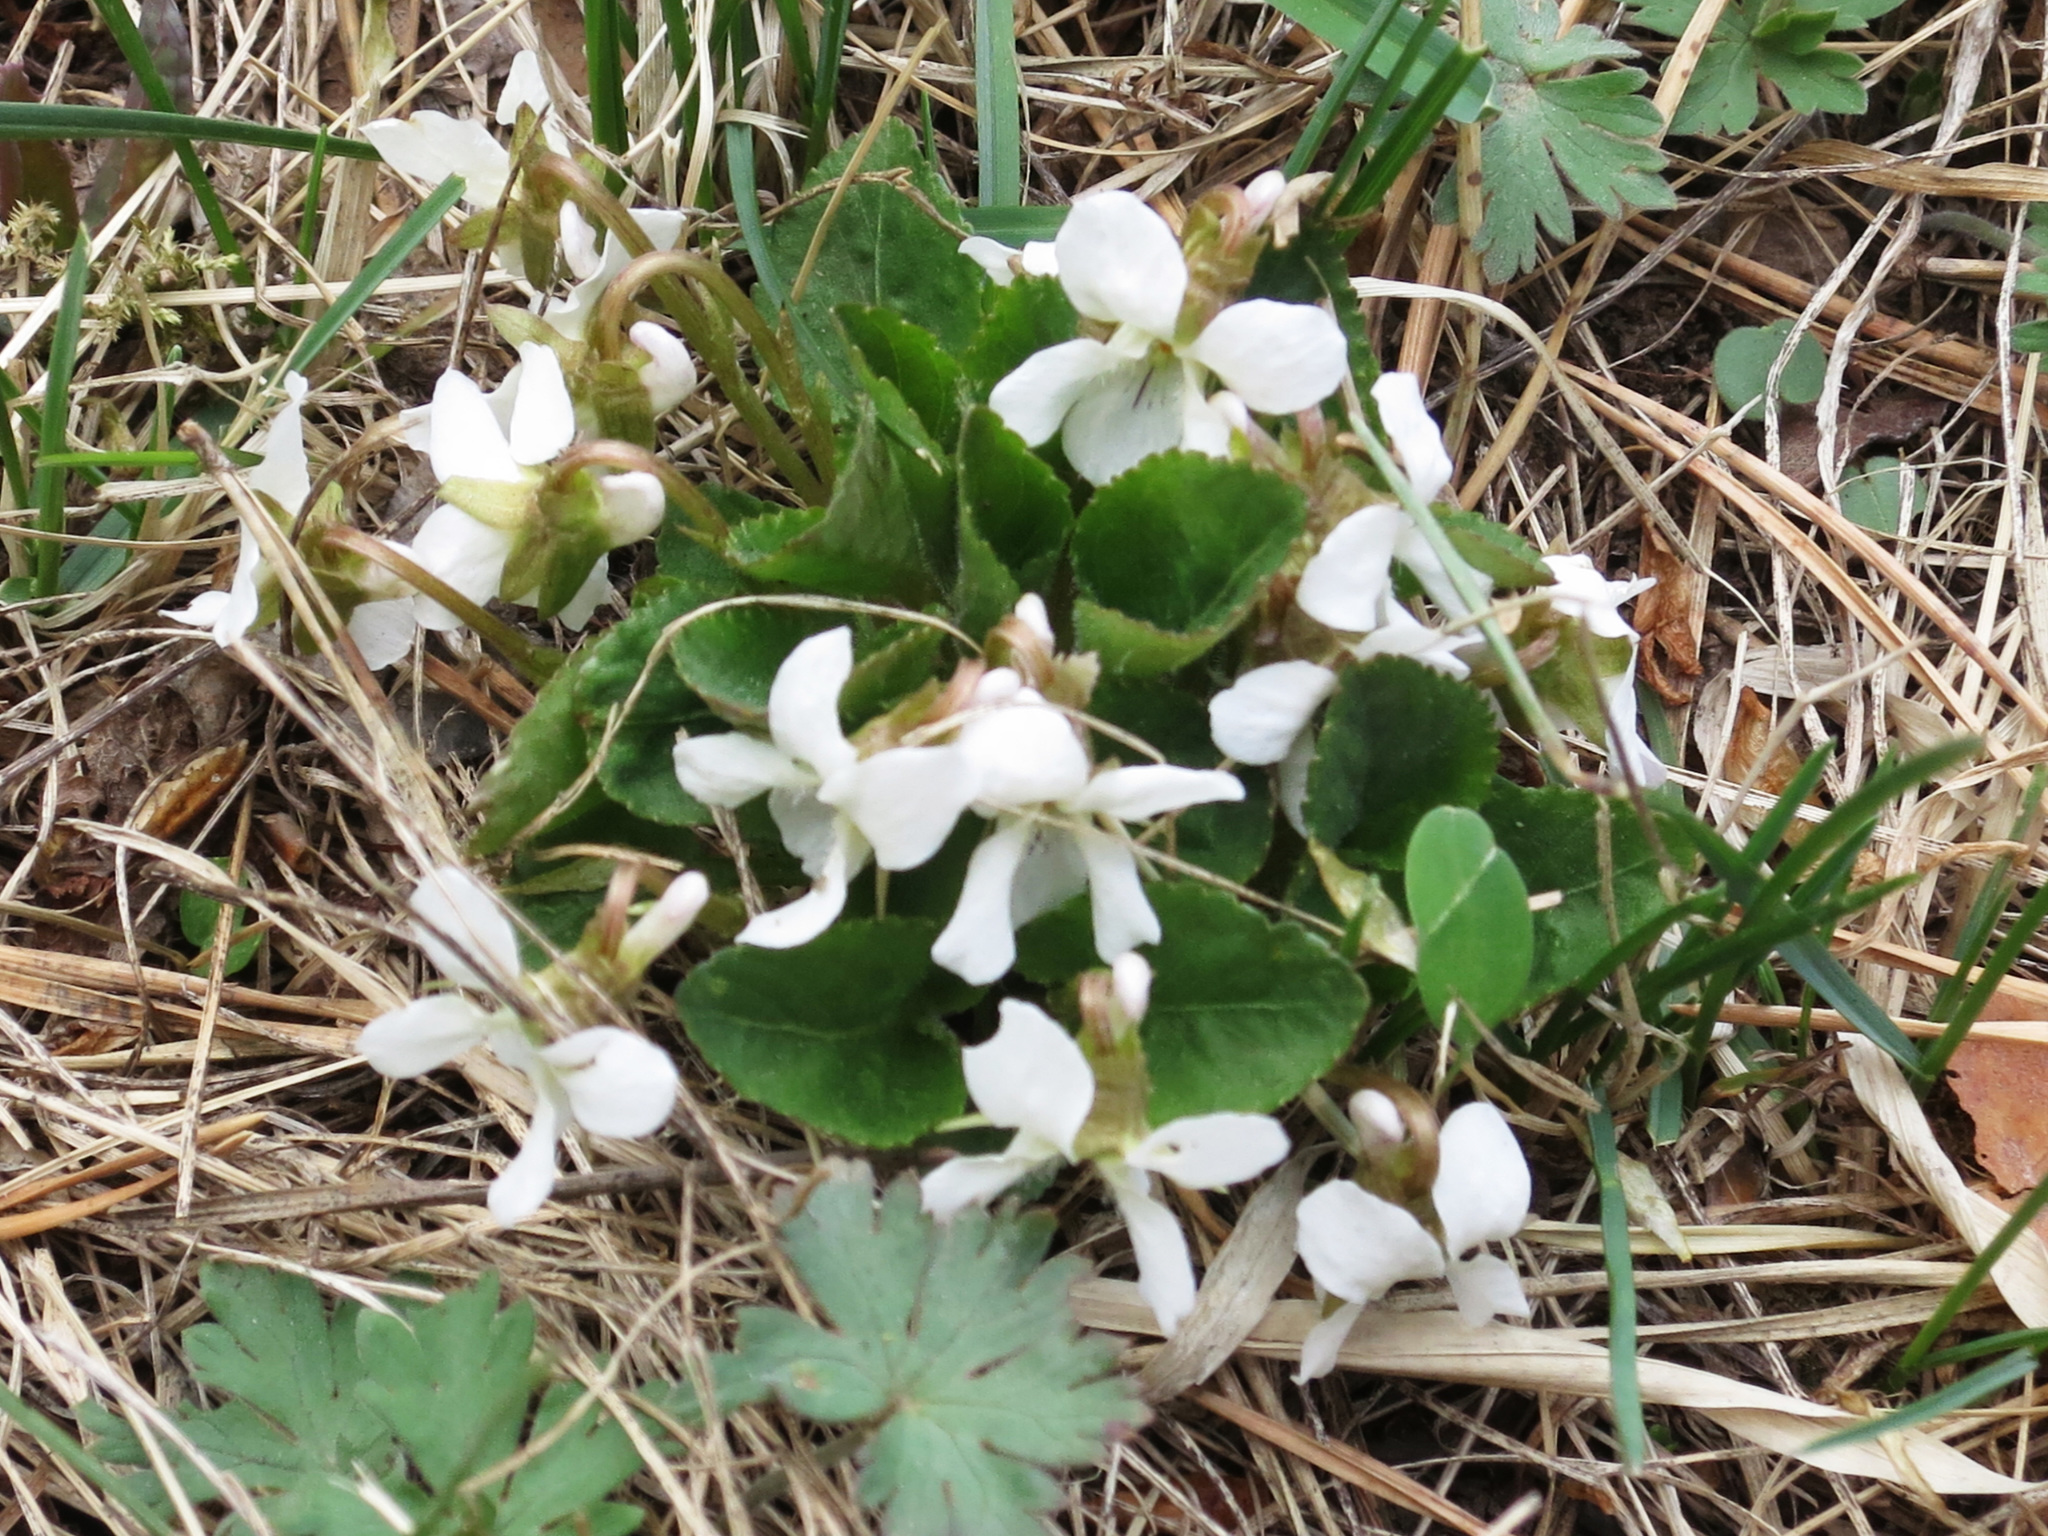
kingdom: Plantae
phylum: Tracheophyta
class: Magnoliopsida
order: Malpighiales
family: Violaceae
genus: Viola
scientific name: Viola pacifica
